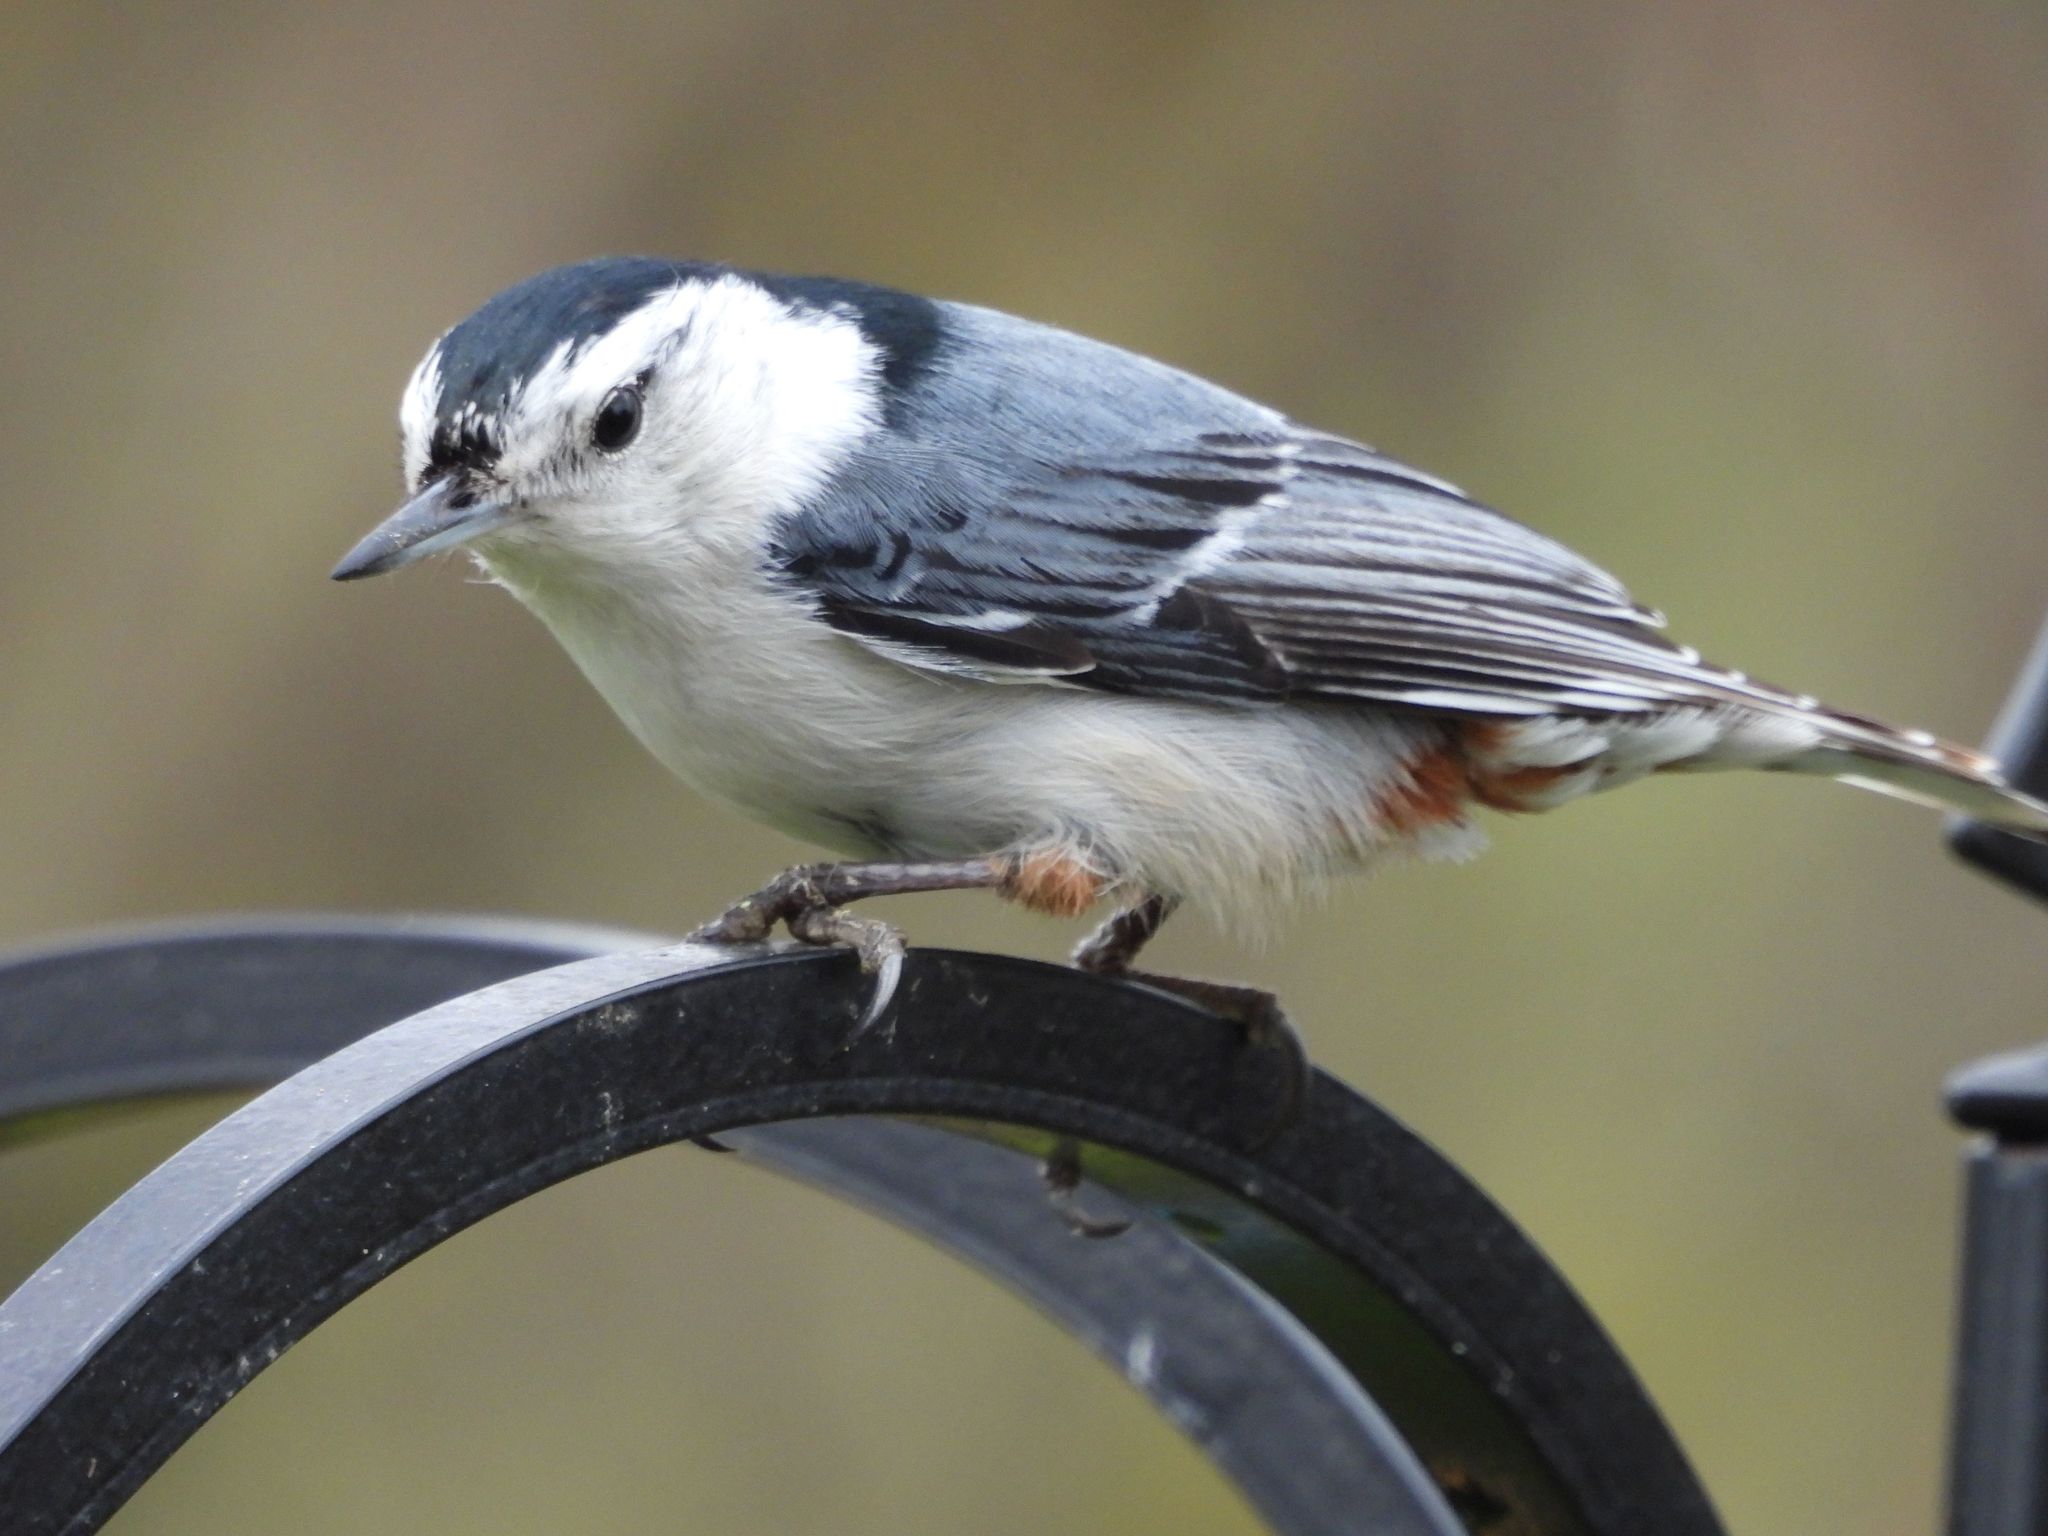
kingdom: Animalia
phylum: Chordata
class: Aves
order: Passeriformes
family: Sittidae
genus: Sitta
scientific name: Sitta carolinensis
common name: White-breasted nuthatch
